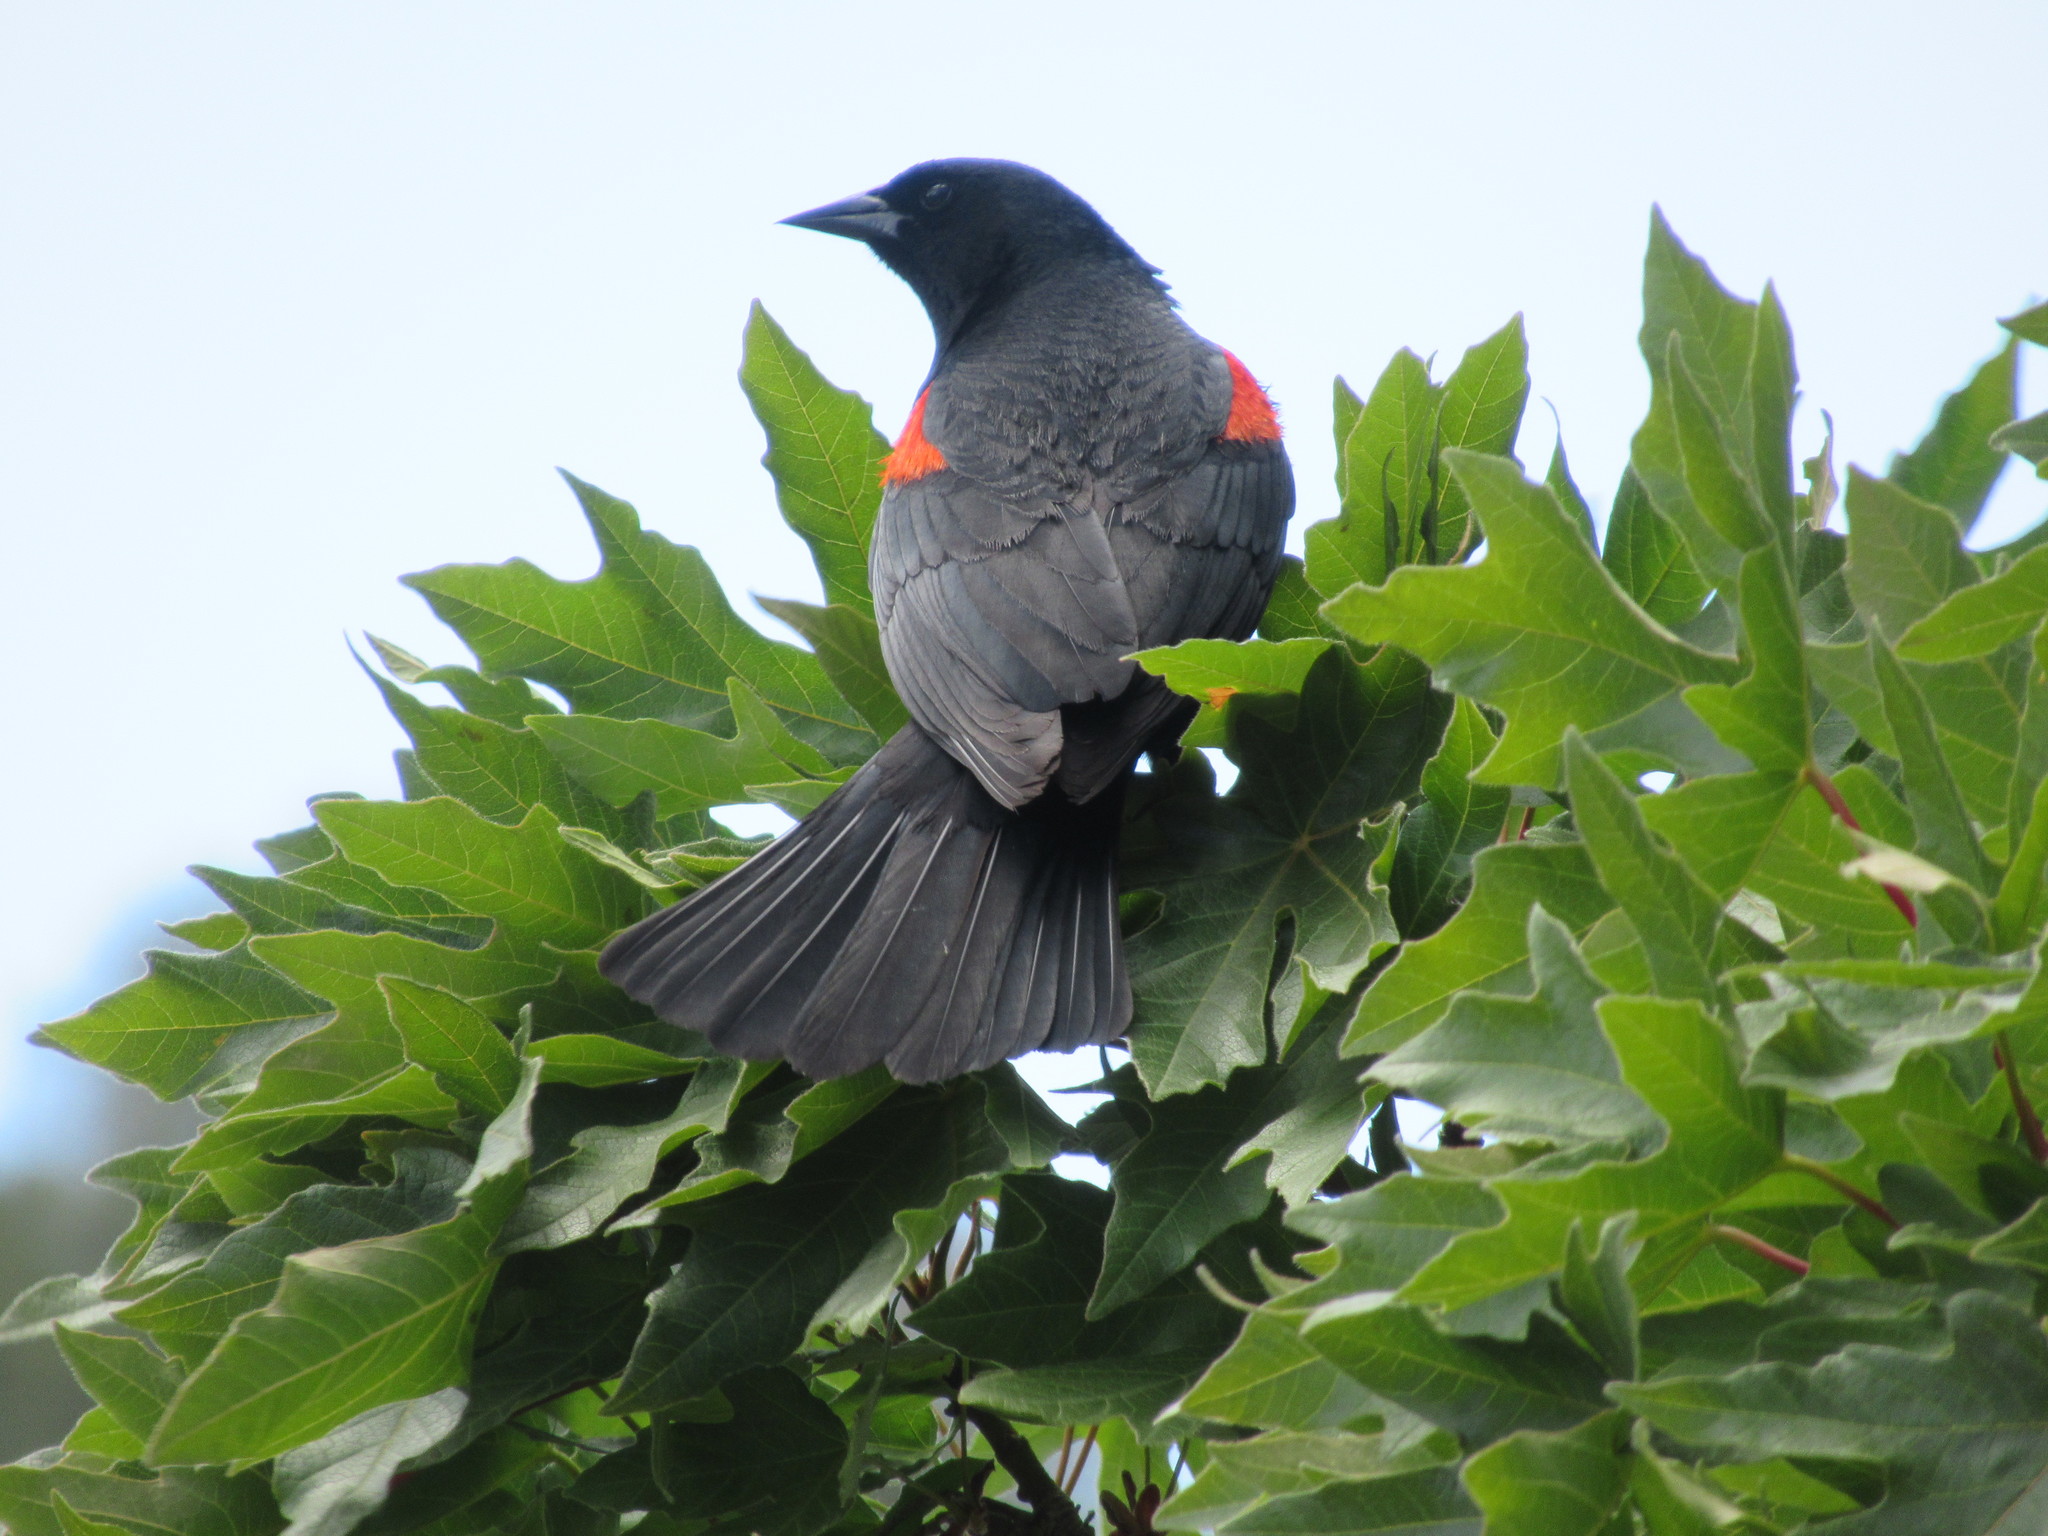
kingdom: Animalia
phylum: Chordata
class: Aves
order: Passeriformes
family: Icteridae
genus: Agelaius
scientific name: Agelaius phoeniceus
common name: Red-winged blackbird
